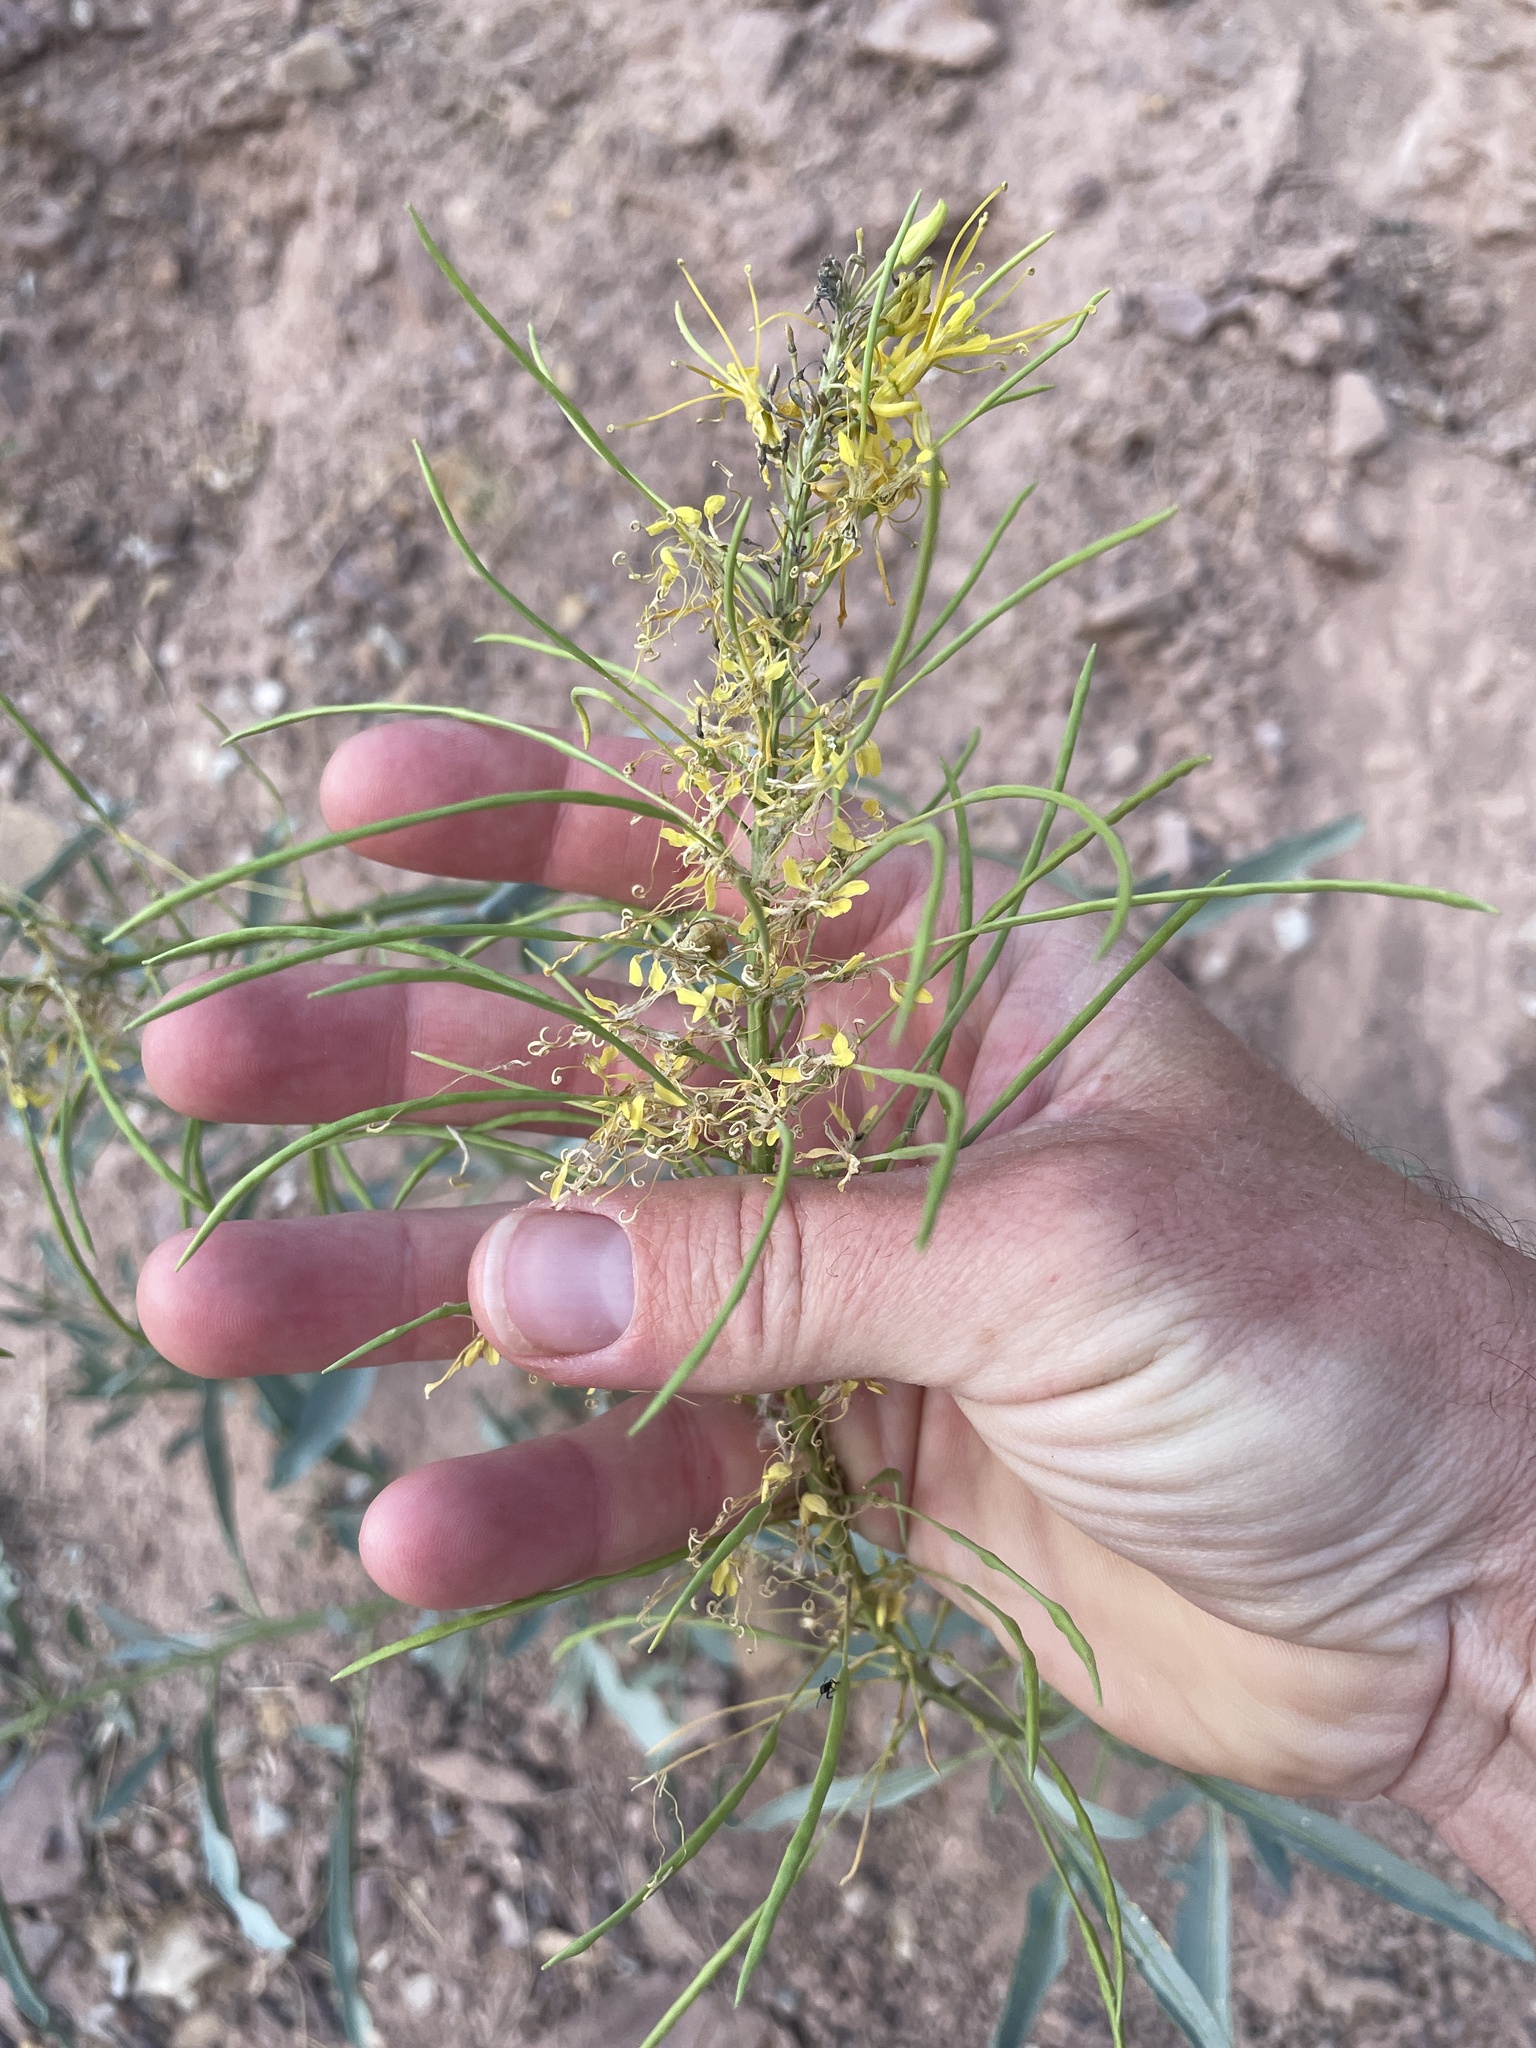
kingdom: Plantae
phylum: Tracheophyta
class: Magnoliopsida
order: Brassicales
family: Brassicaceae
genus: Stanleya
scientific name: Stanleya pinnata
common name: Prince's-plume
